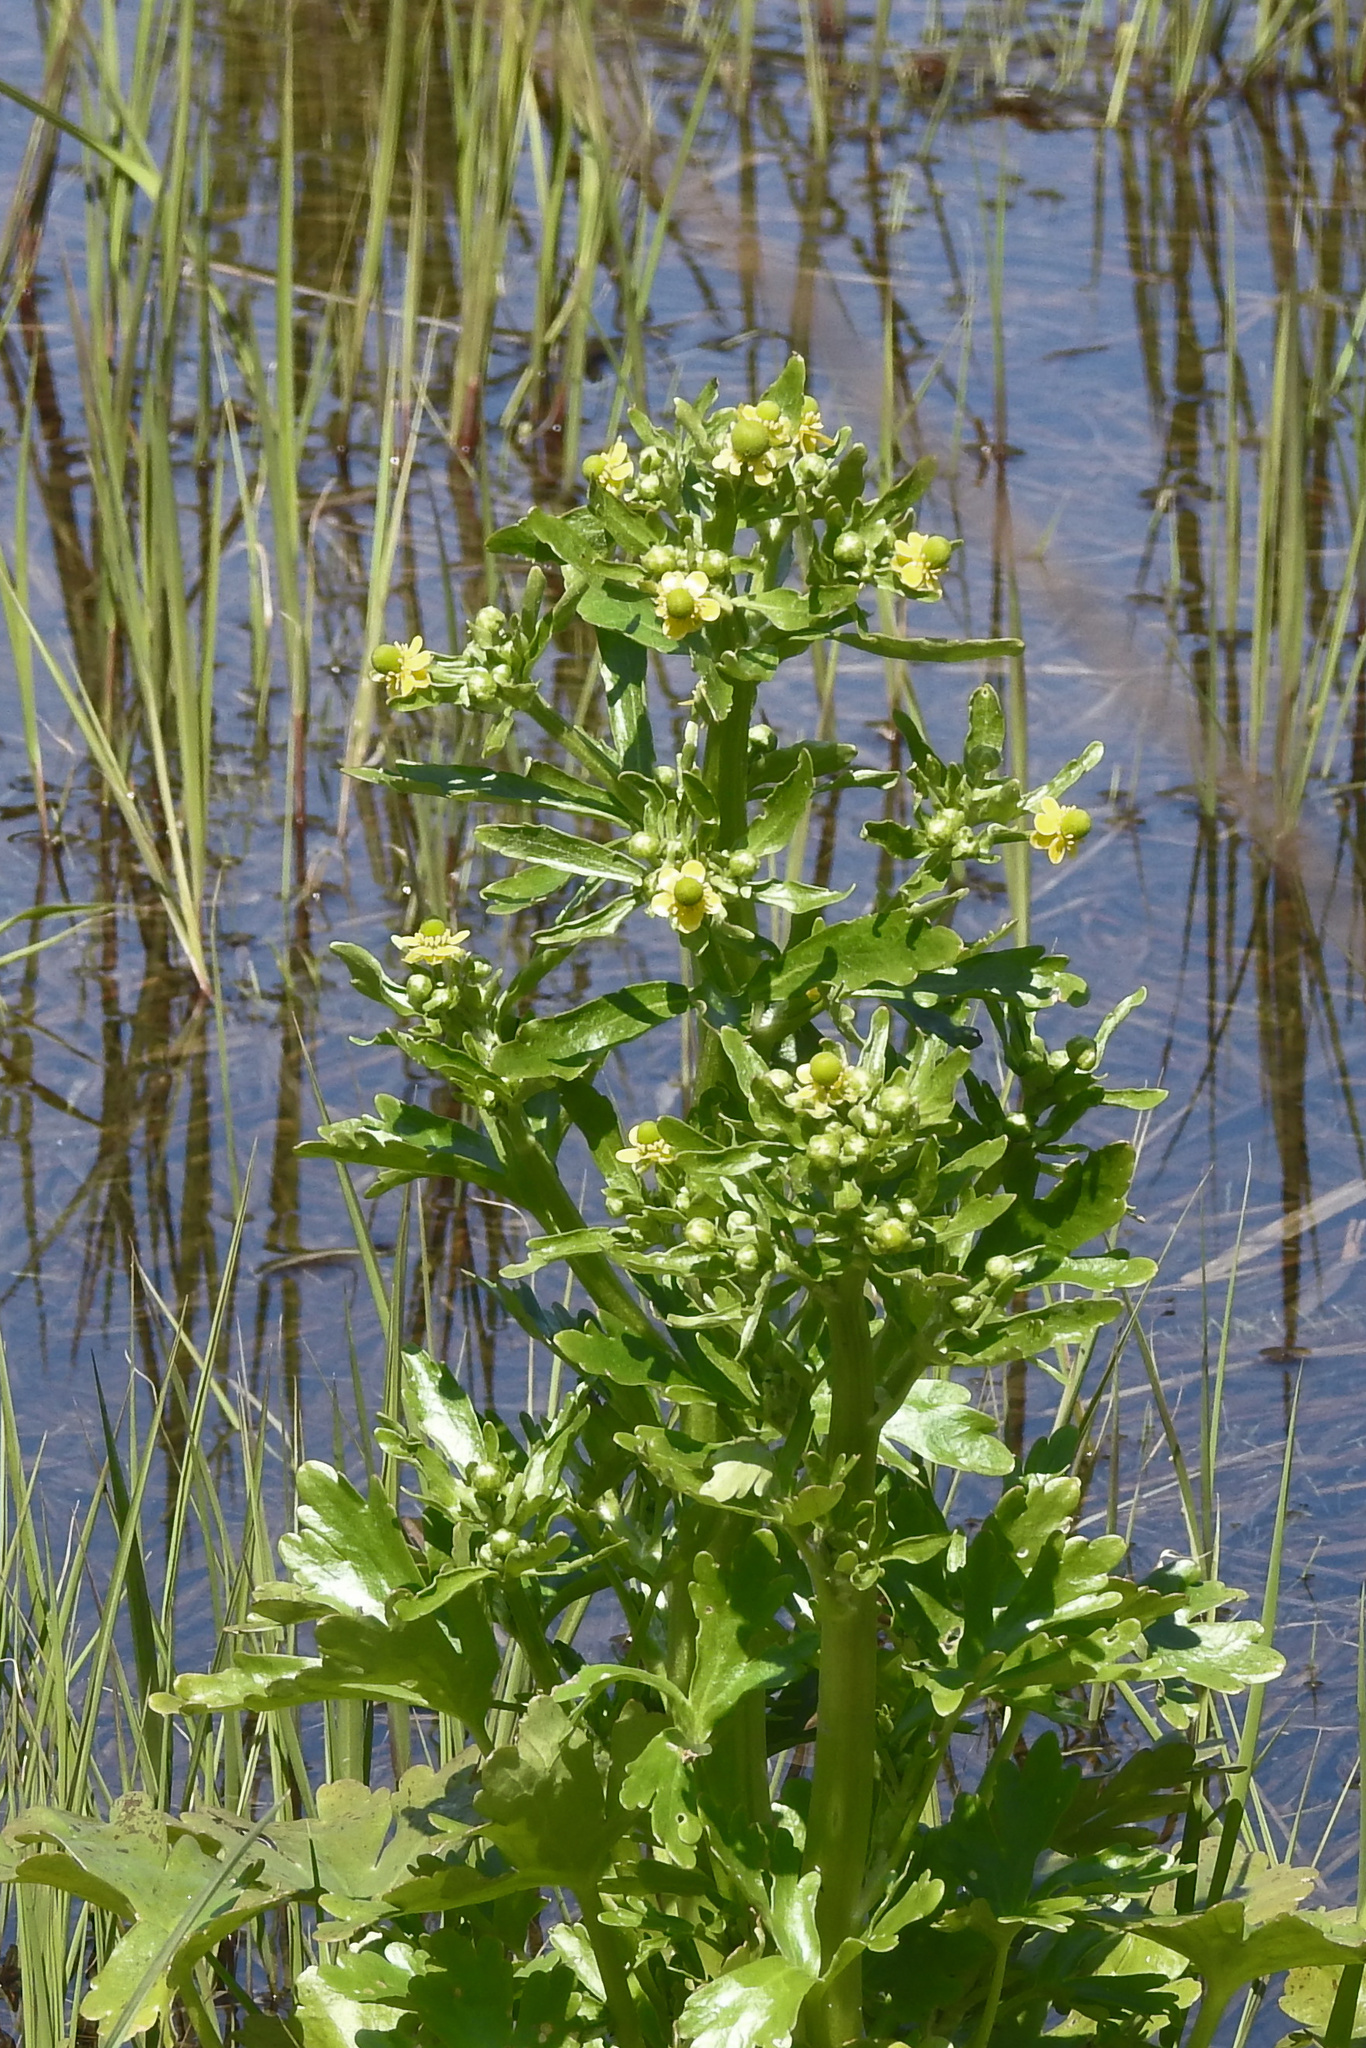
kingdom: Plantae
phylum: Tracheophyta
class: Magnoliopsida
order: Ranunculales
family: Ranunculaceae
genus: Ranunculus
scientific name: Ranunculus sceleratus
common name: Celery-leaved buttercup
